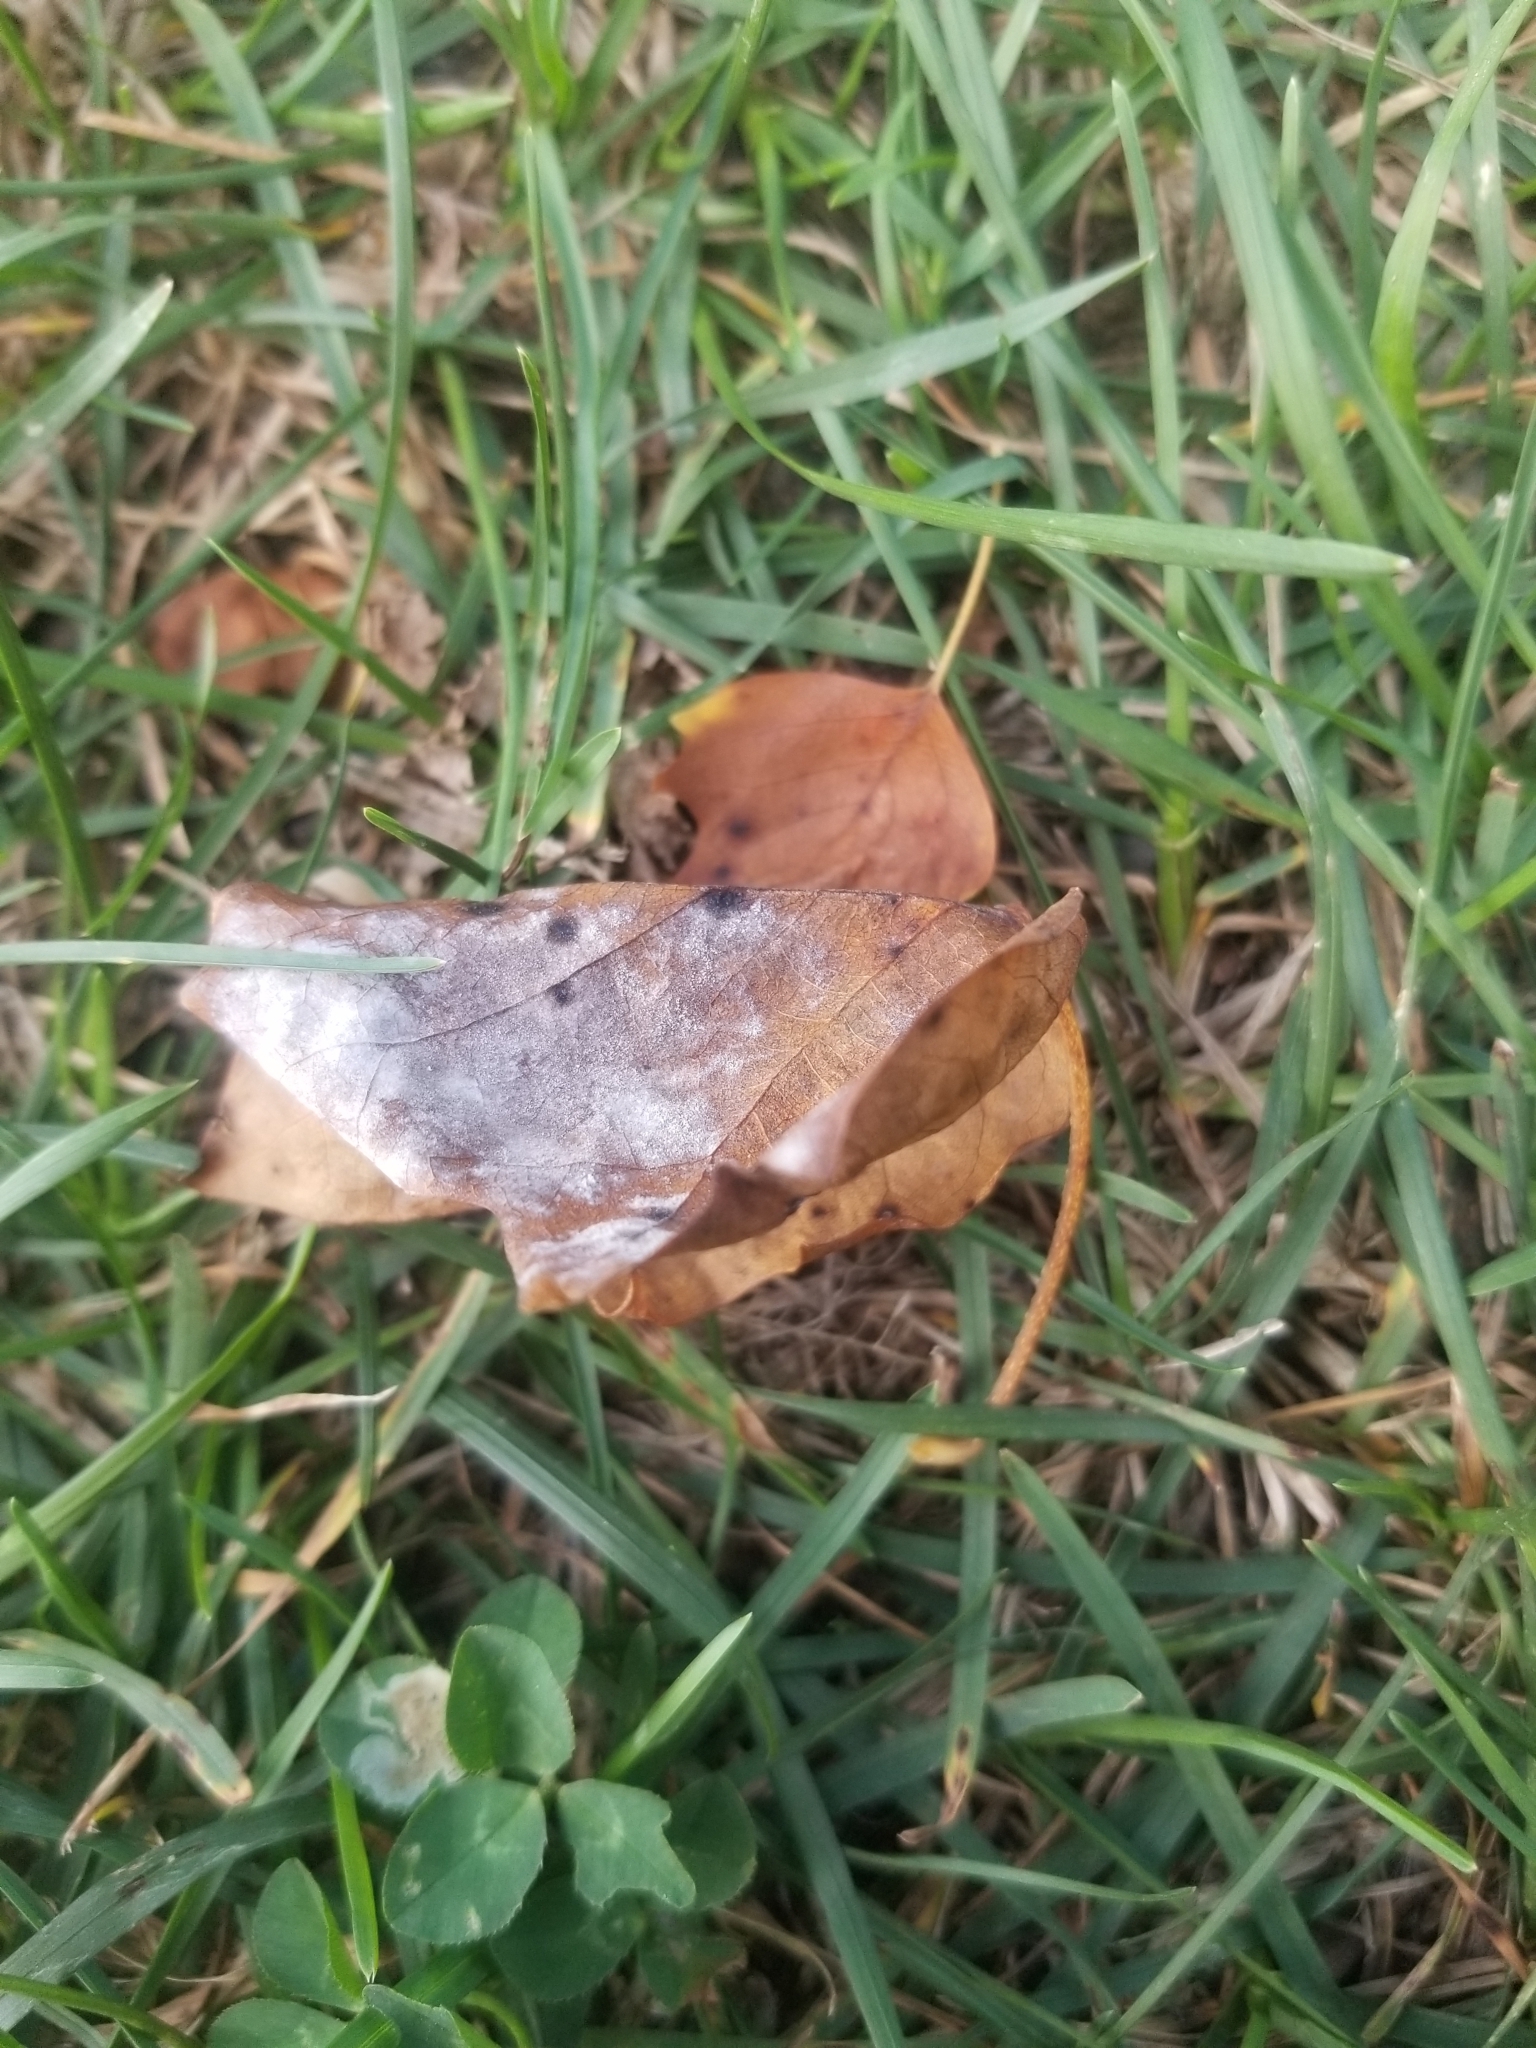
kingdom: Fungi
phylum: Ascomycota
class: Leotiomycetes
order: Helotiales
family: Erysiphaceae
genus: Erysiphe
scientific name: Erysiphe liriodendri
